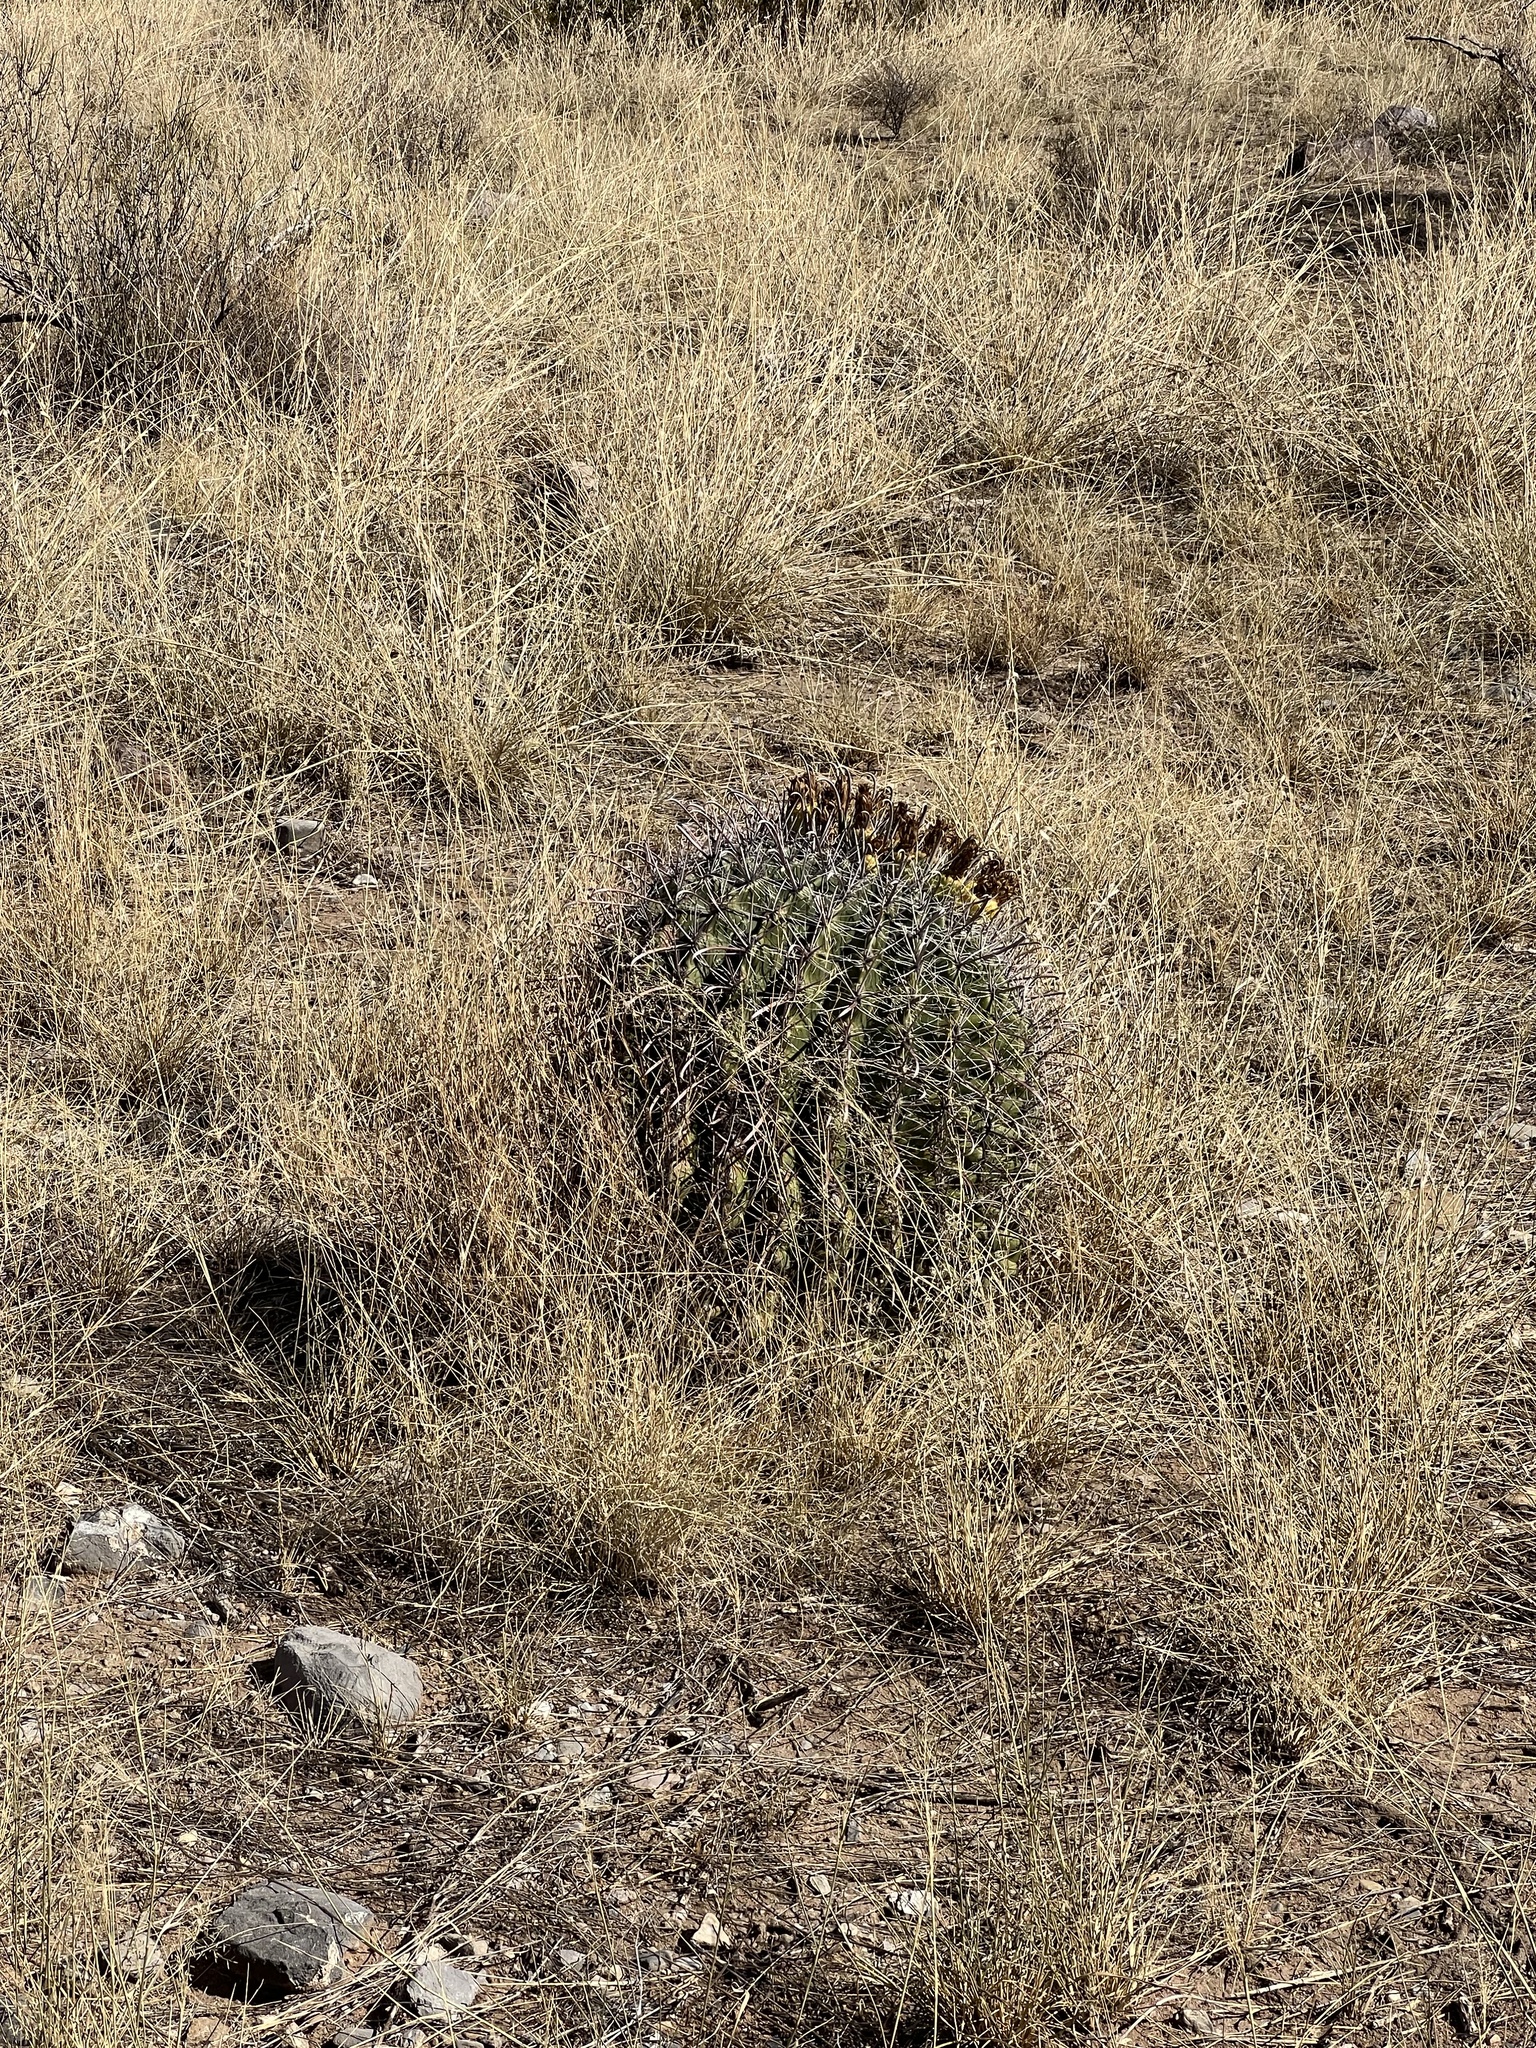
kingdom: Plantae
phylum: Tracheophyta
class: Magnoliopsida
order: Caryophyllales
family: Cactaceae
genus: Ferocactus
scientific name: Ferocactus wislizeni
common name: Candy barrel cactus
